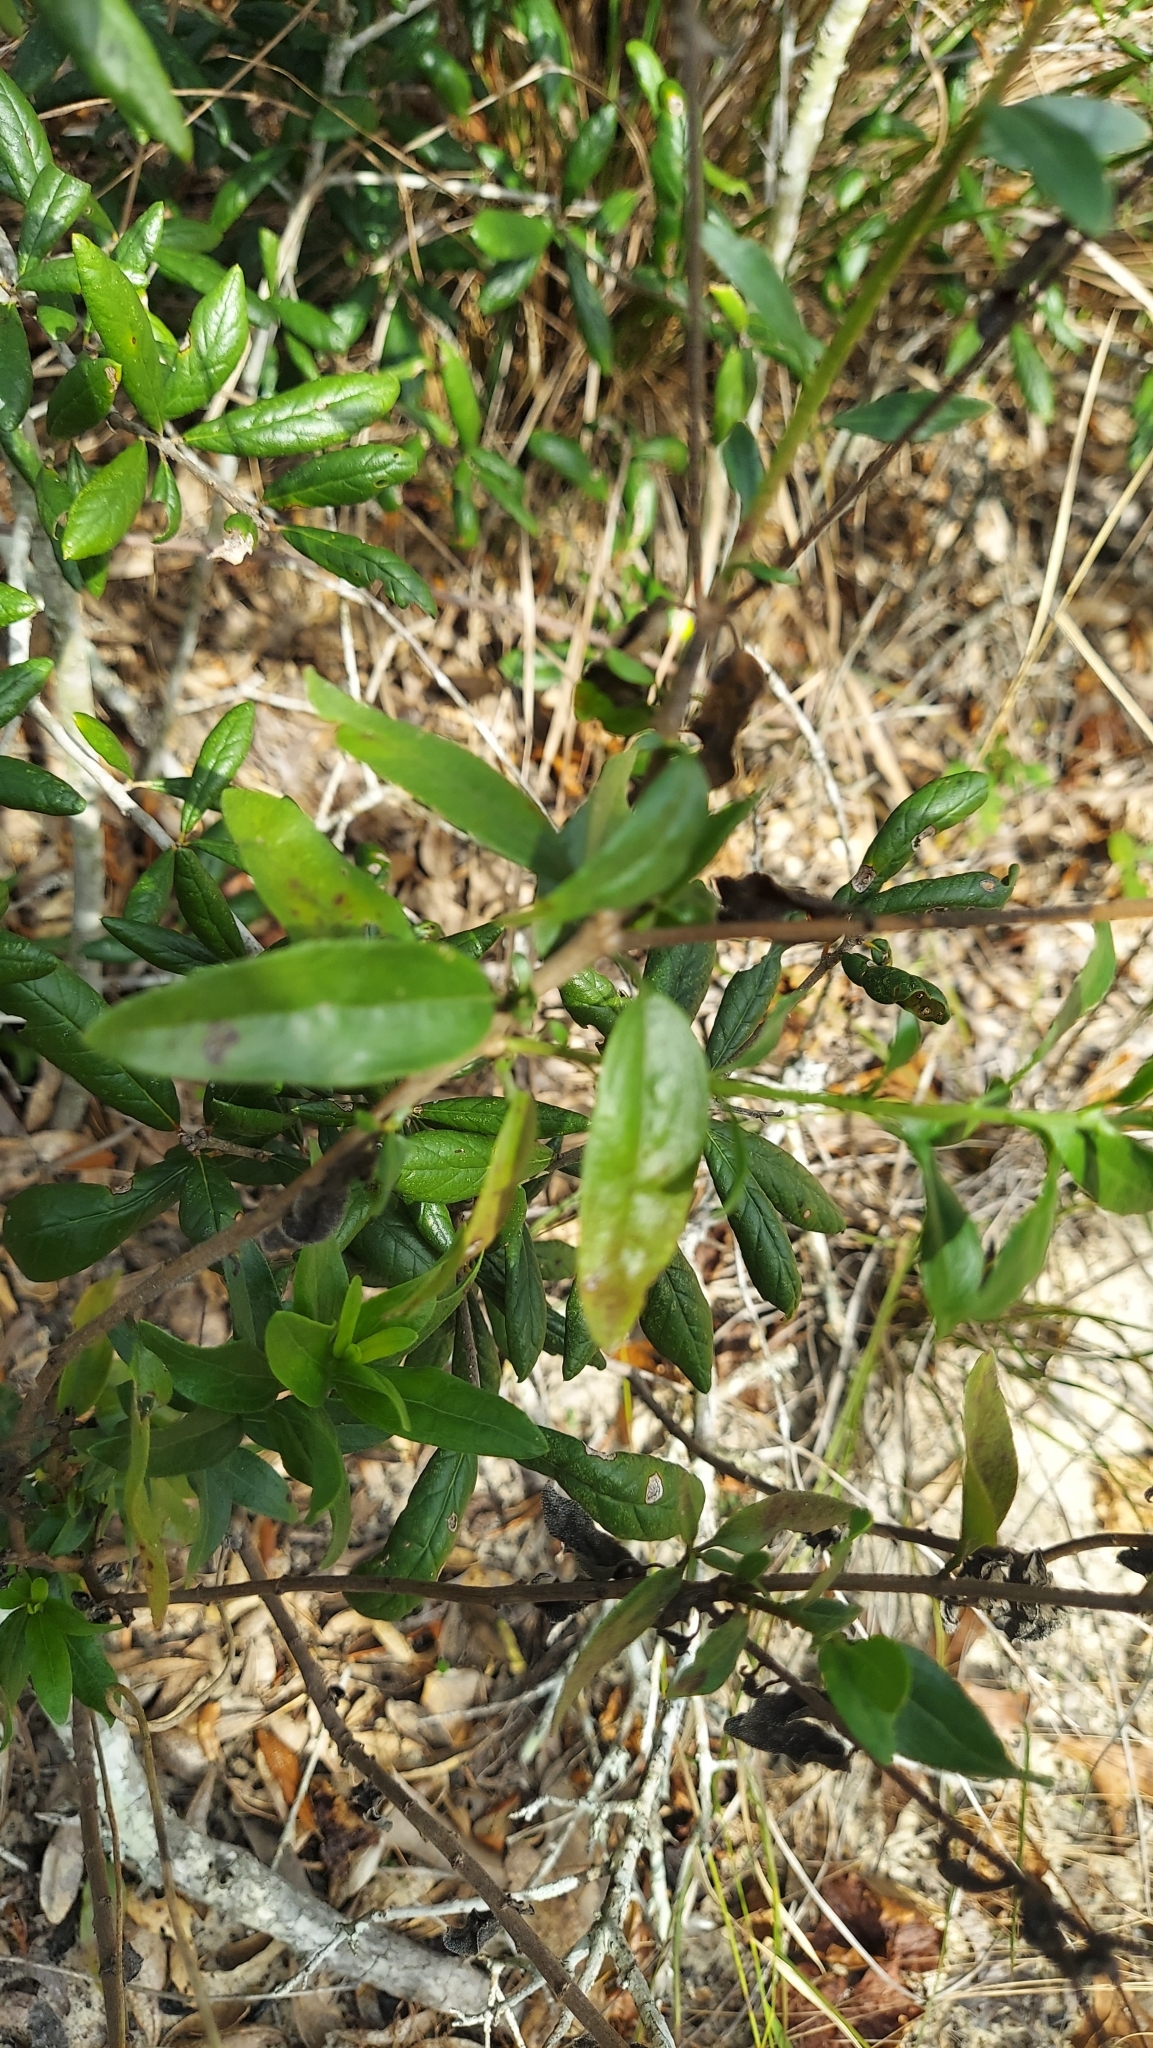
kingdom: Plantae
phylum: Tracheophyta
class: Magnoliopsida
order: Asterales
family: Asteraceae
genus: Palafoxia
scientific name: Palafoxia feayi
